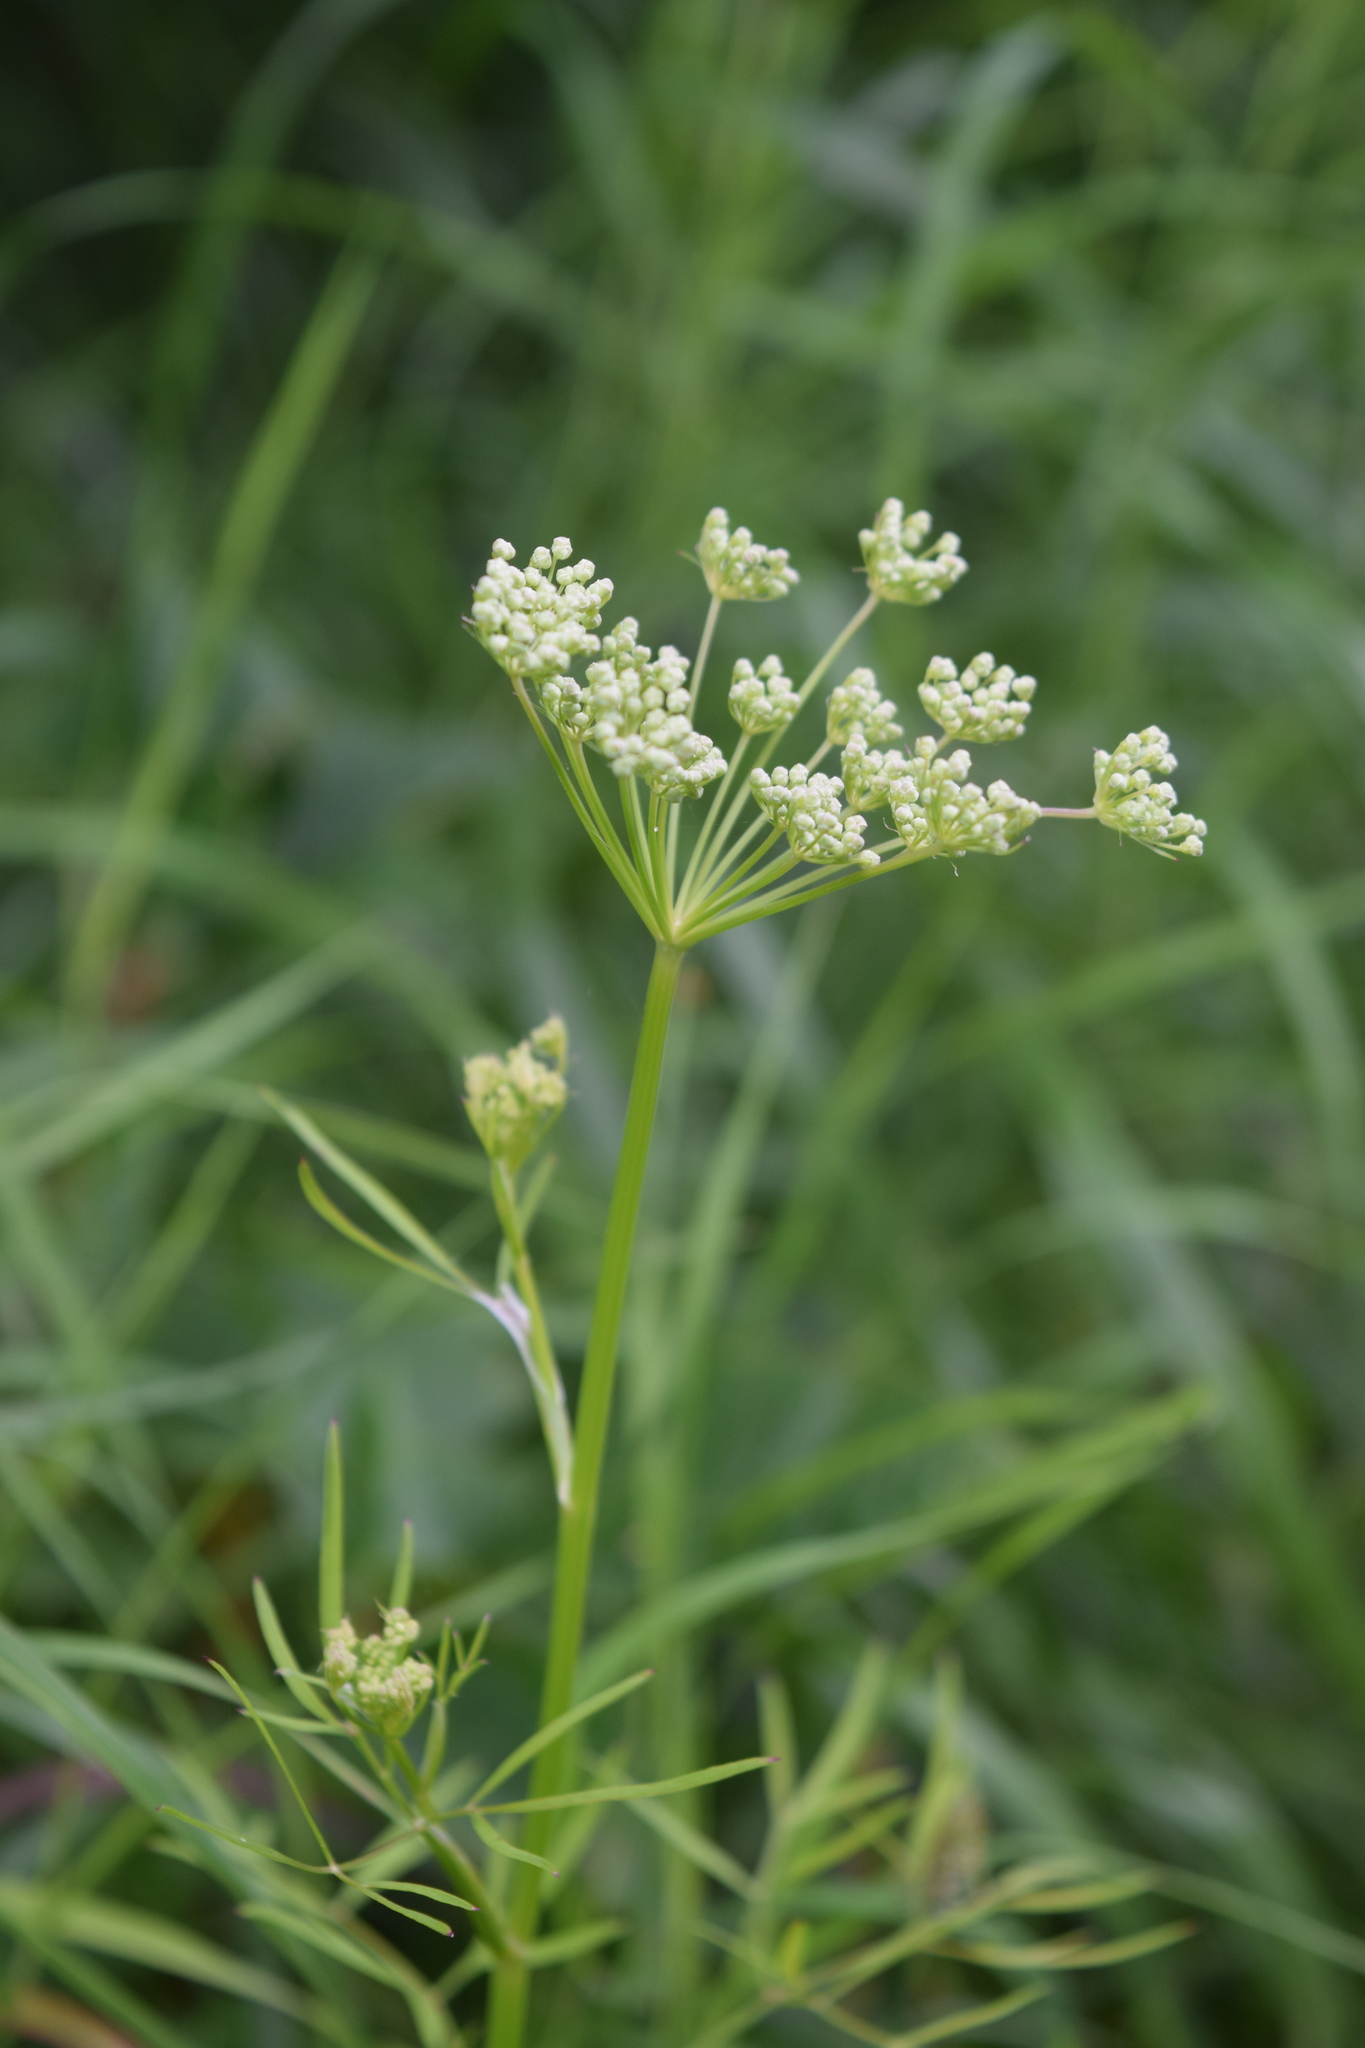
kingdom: Plantae
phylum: Tracheophyta
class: Magnoliopsida
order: Apiales
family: Apiaceae
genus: Cenolophium
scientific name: Cenolophium fischeri
